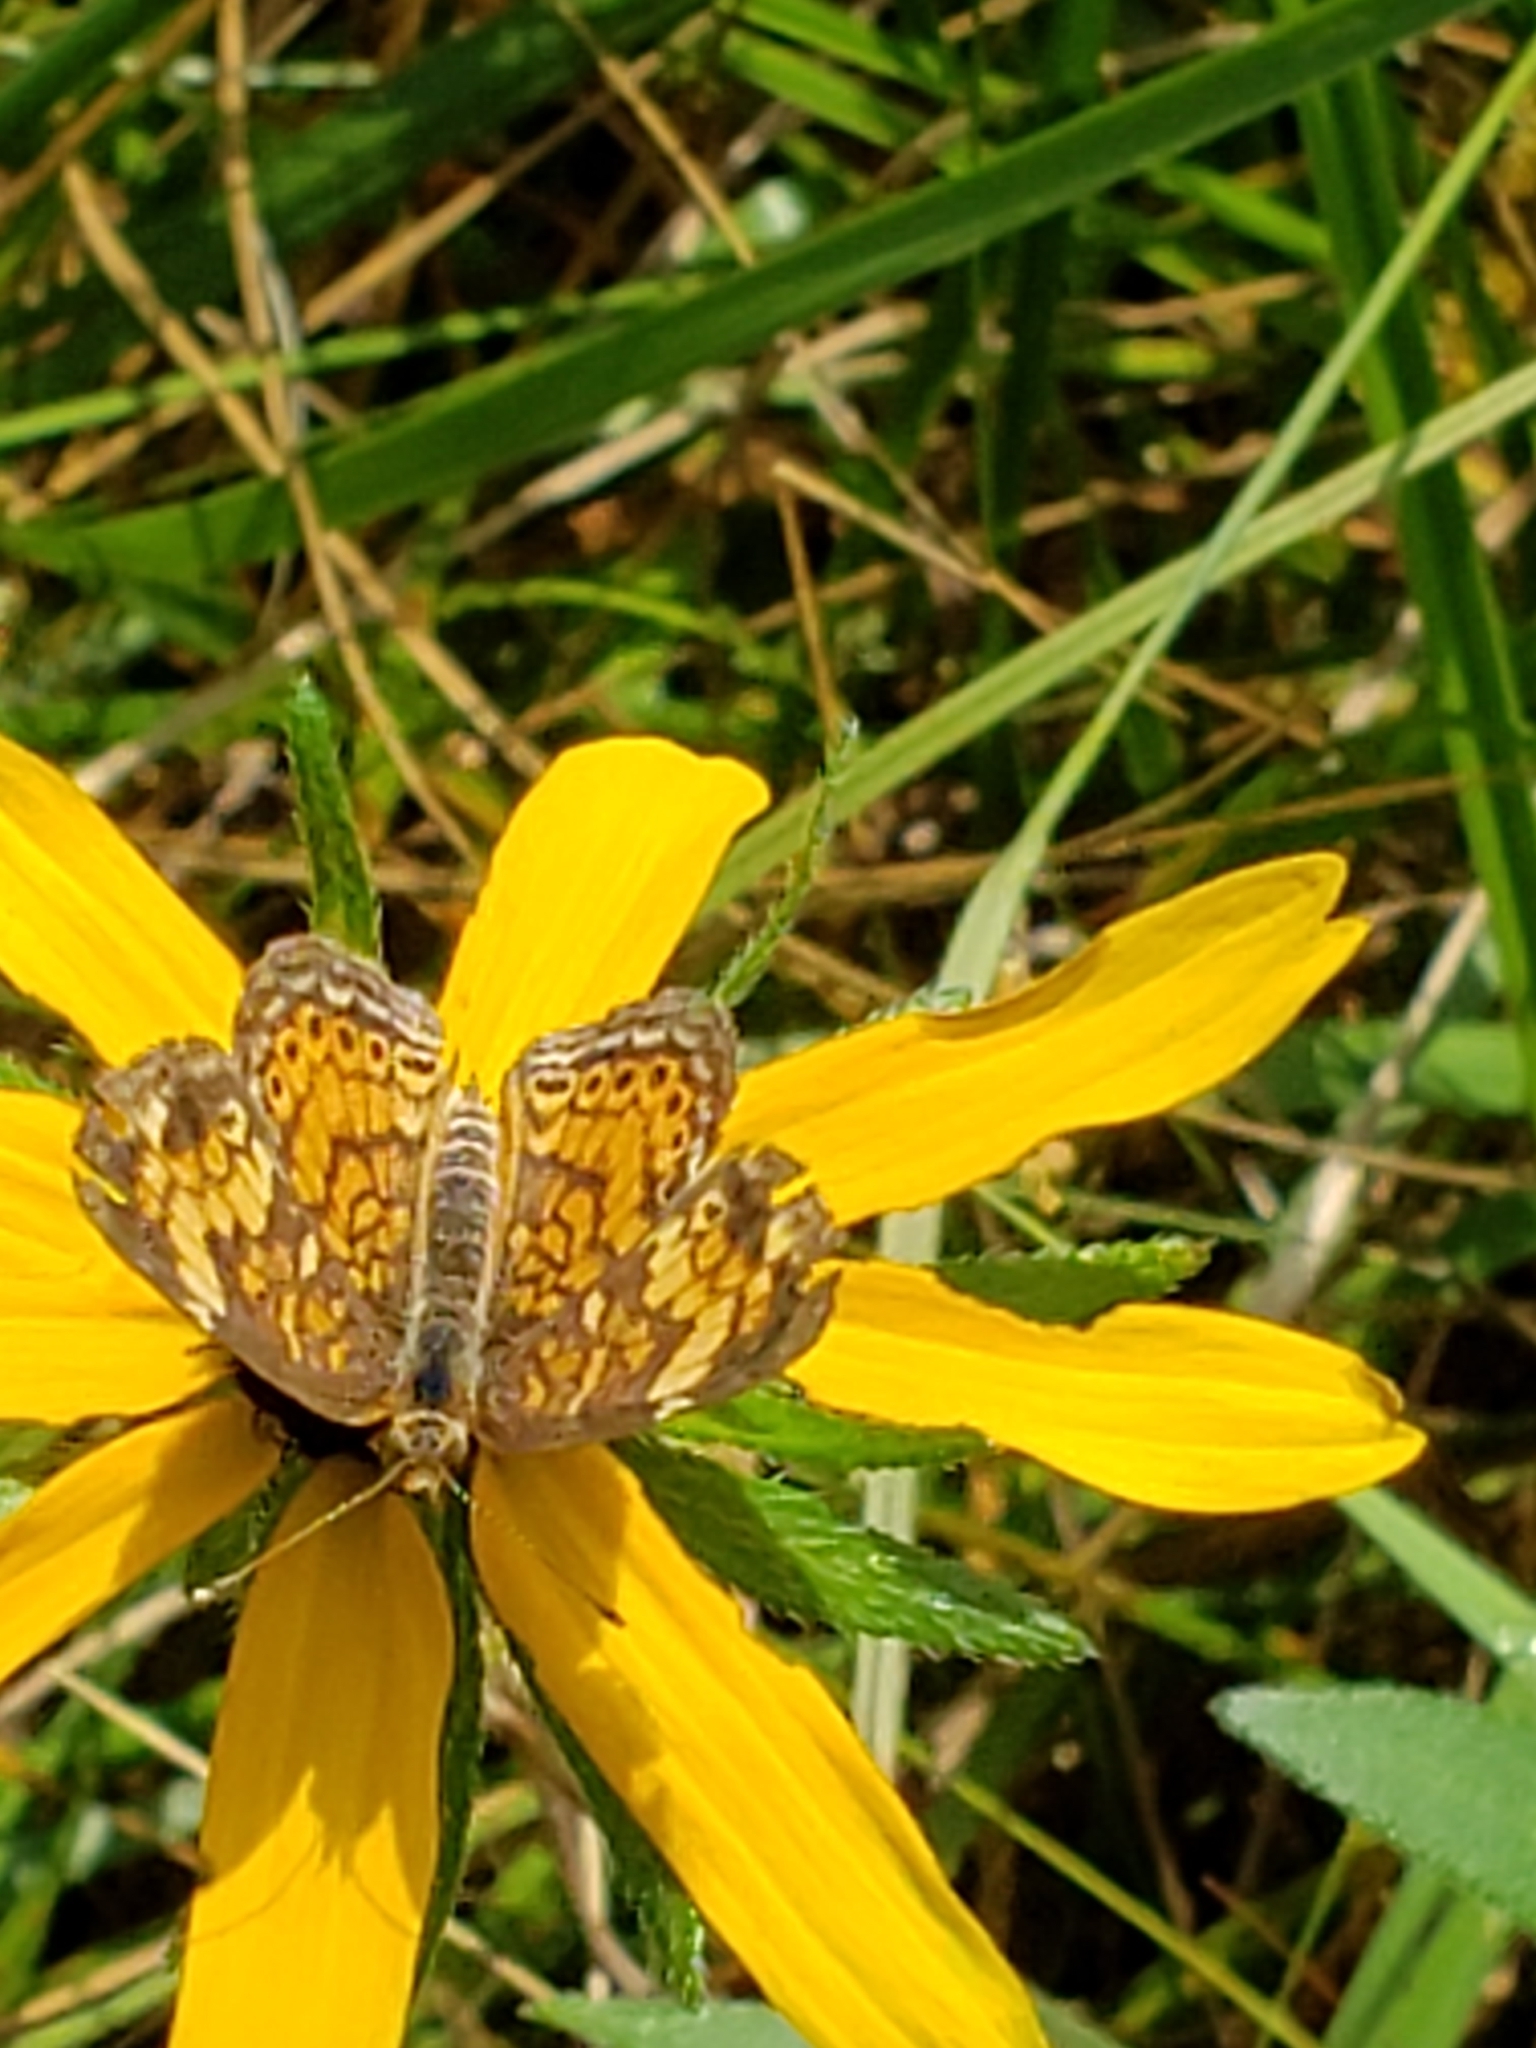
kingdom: Animalia
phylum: Arthropoda
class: Insecta
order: Lepidoptera
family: Nymphalidae
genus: Phyciodes
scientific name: Phyciodes tharos
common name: Pearl crescent
